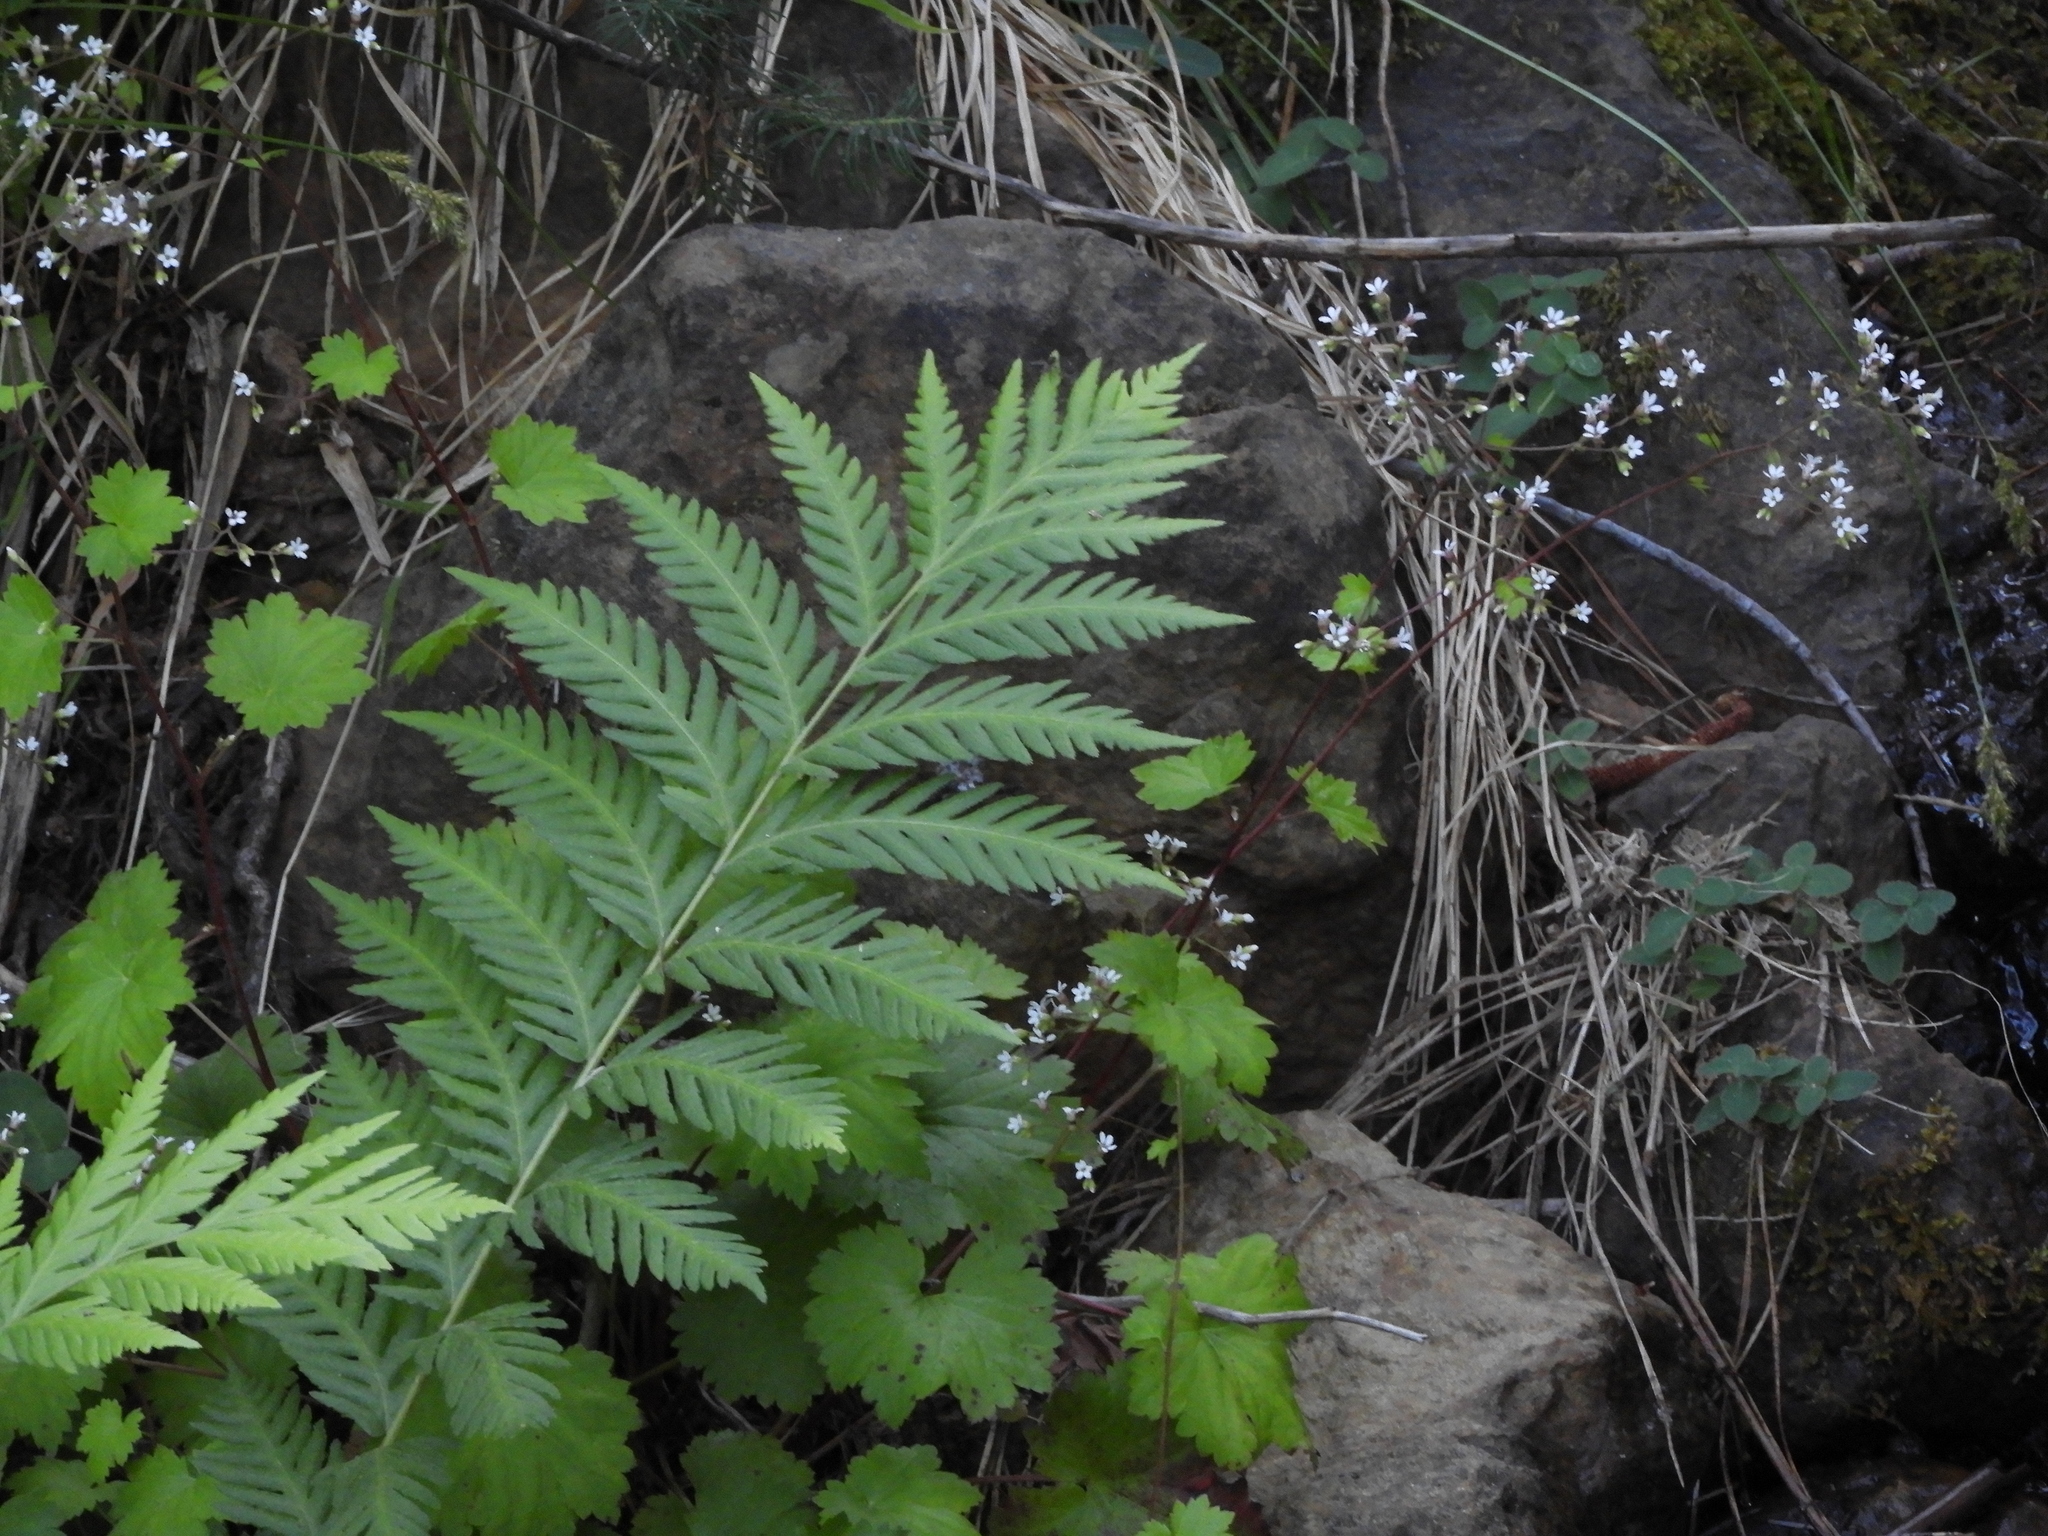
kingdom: Plantae
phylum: Tracheophyta
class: Polypodiopsida
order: Polypodiales
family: Blechnaceae
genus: Woodwardia
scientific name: Woodwardia fimbriata
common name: Giant chain fern
